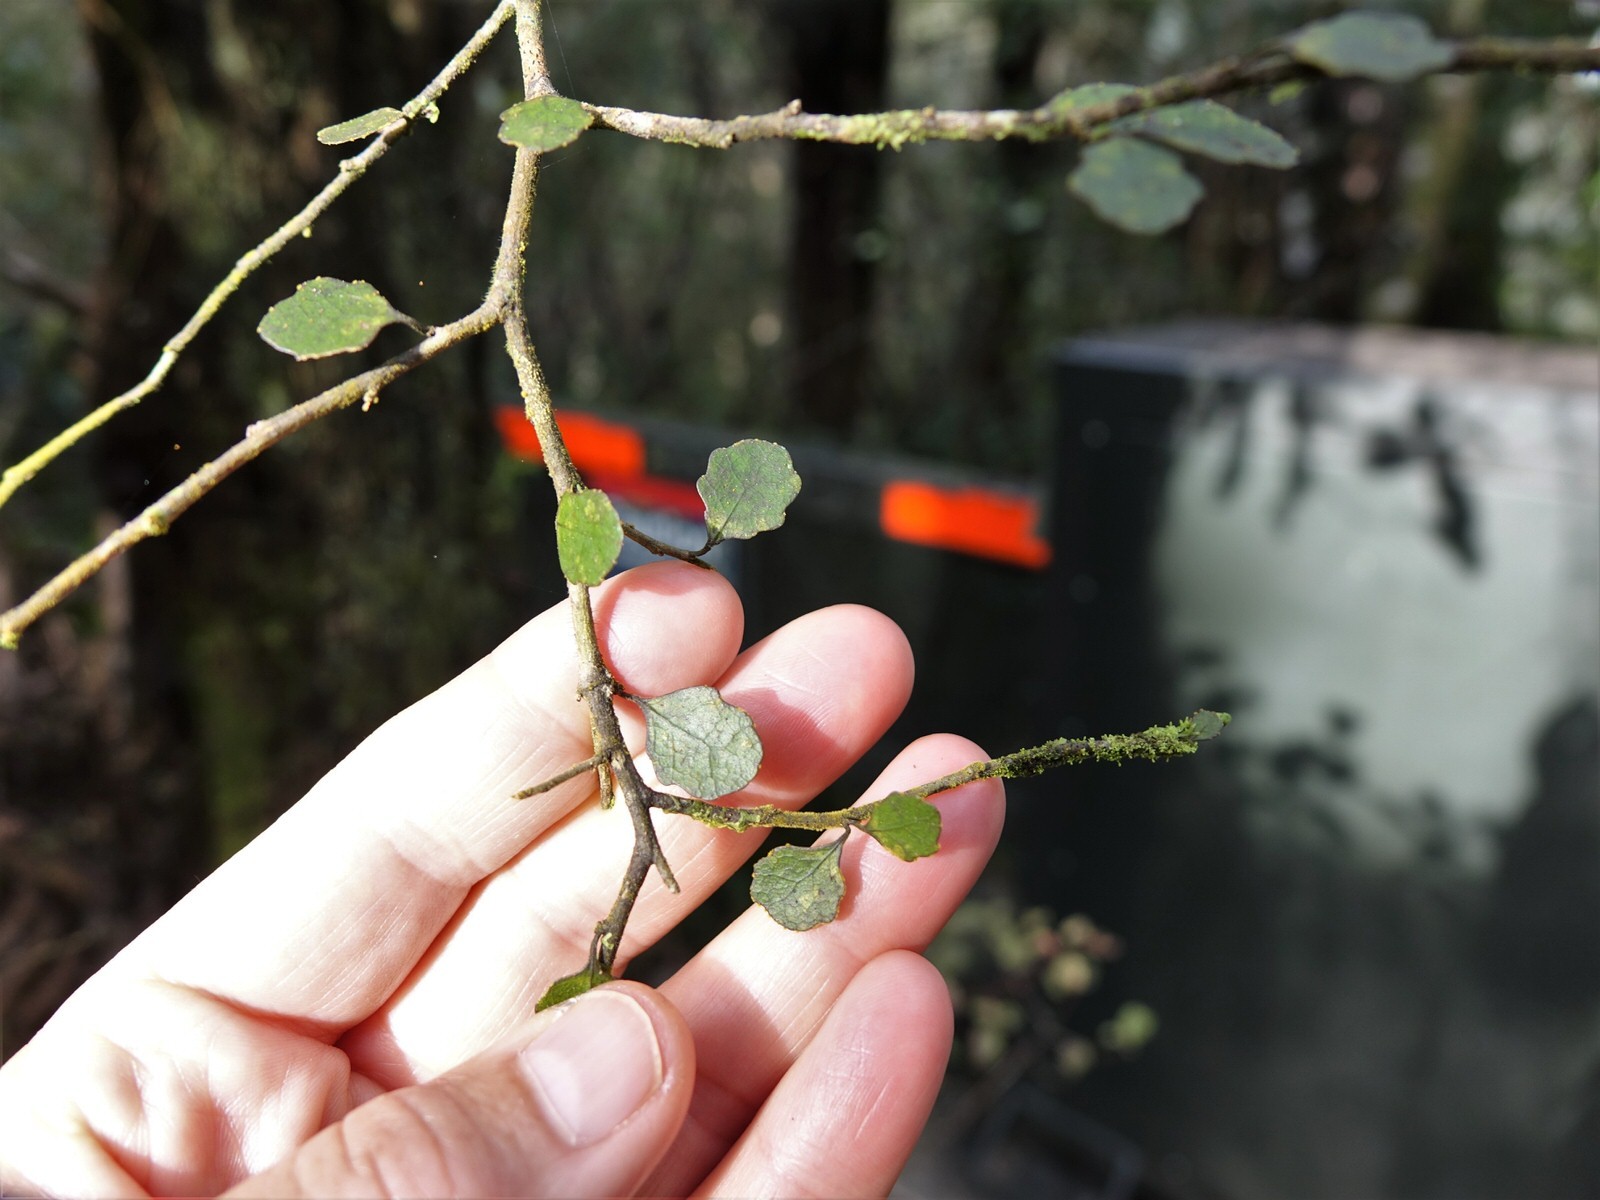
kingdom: Plantae
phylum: Tracheophyta
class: Magnoliopsida
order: Malpighiales
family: Violaceae
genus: Melicytus
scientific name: Melicytus micranthus
